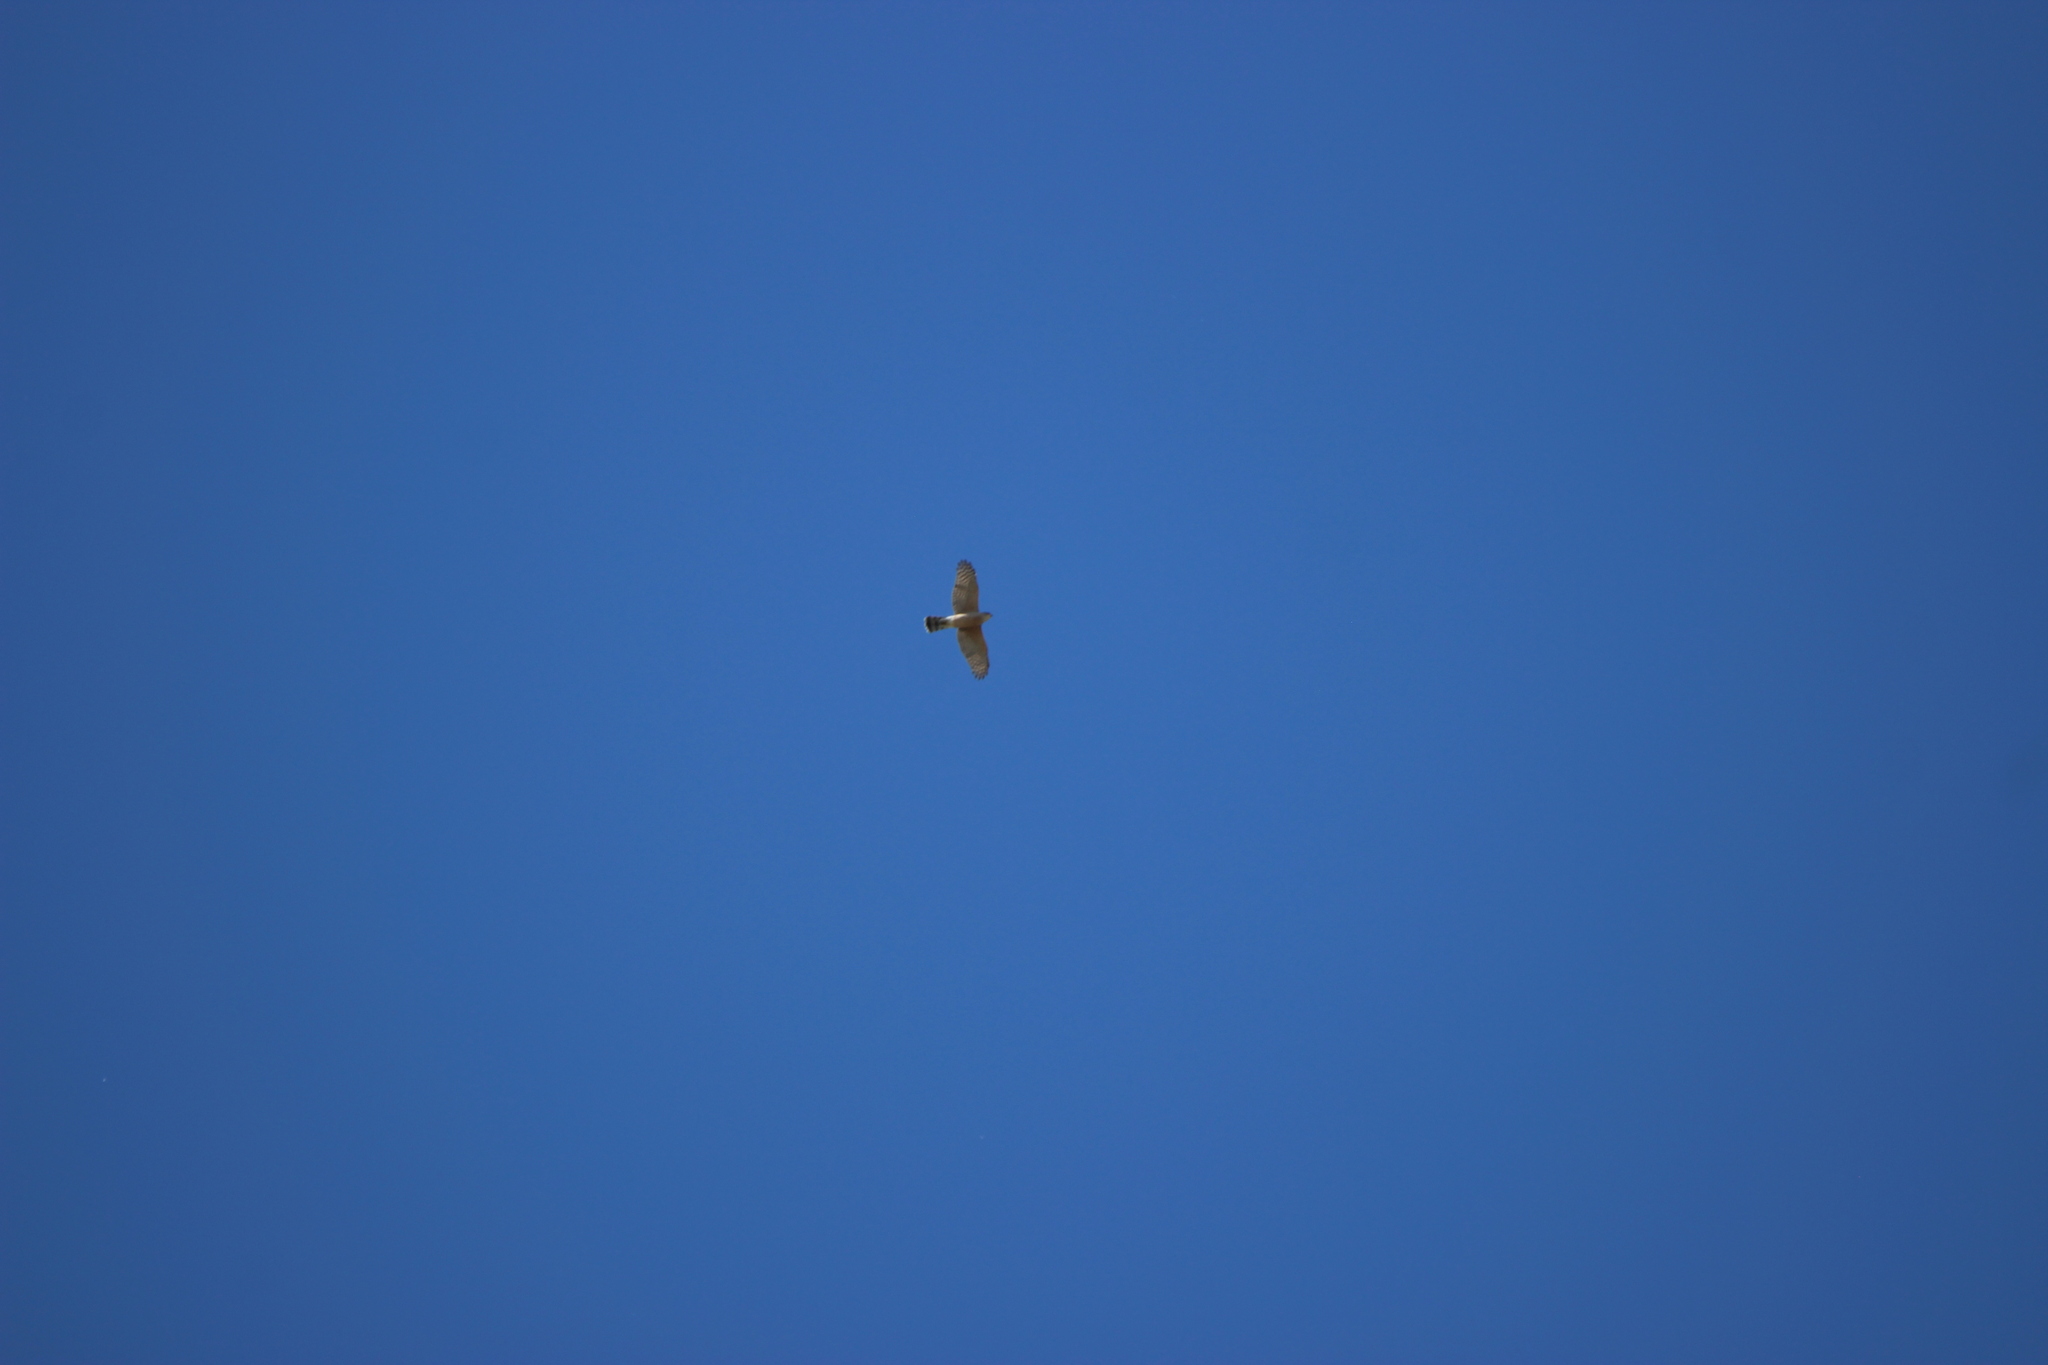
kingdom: Animalia
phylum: Chordata
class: Aves
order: Accipitriformes
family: Accipitridae
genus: Accipiter
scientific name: Accipiter cooperii
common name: Cooper's hawk
